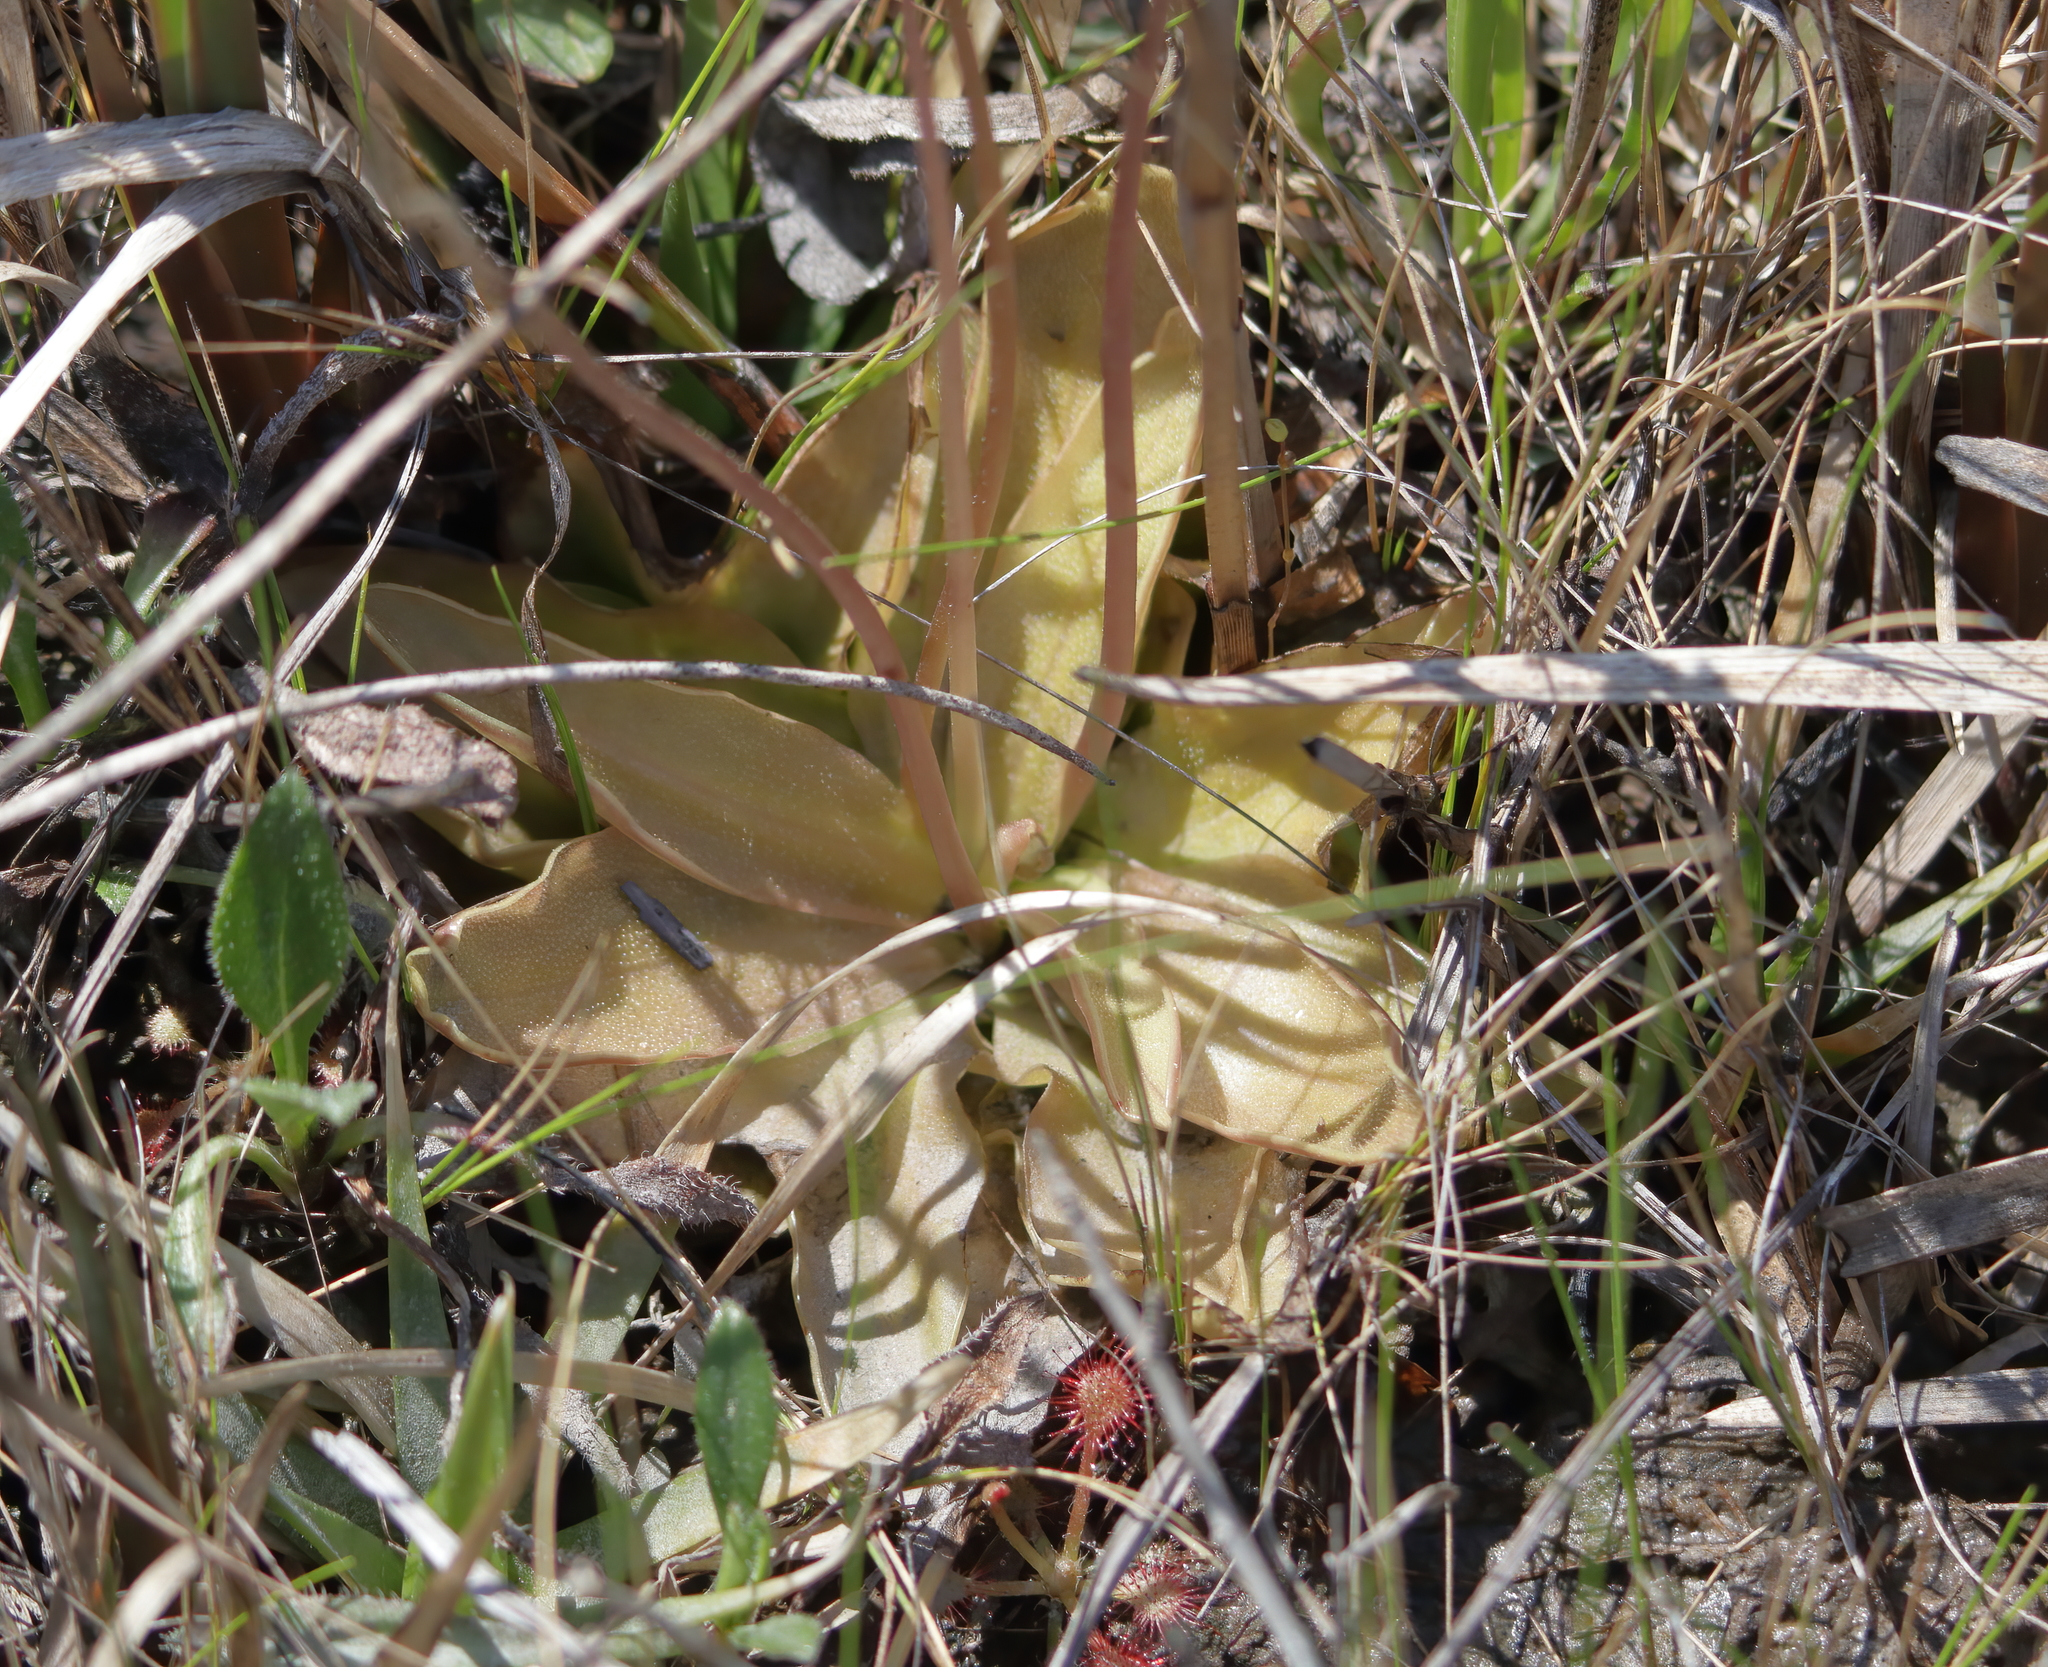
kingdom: Plantae
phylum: Tracheophyta
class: Magnoliopsida
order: Lamiales
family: Lentibulariaceae
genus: Pinguicula
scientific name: Pinguicula planifolia
